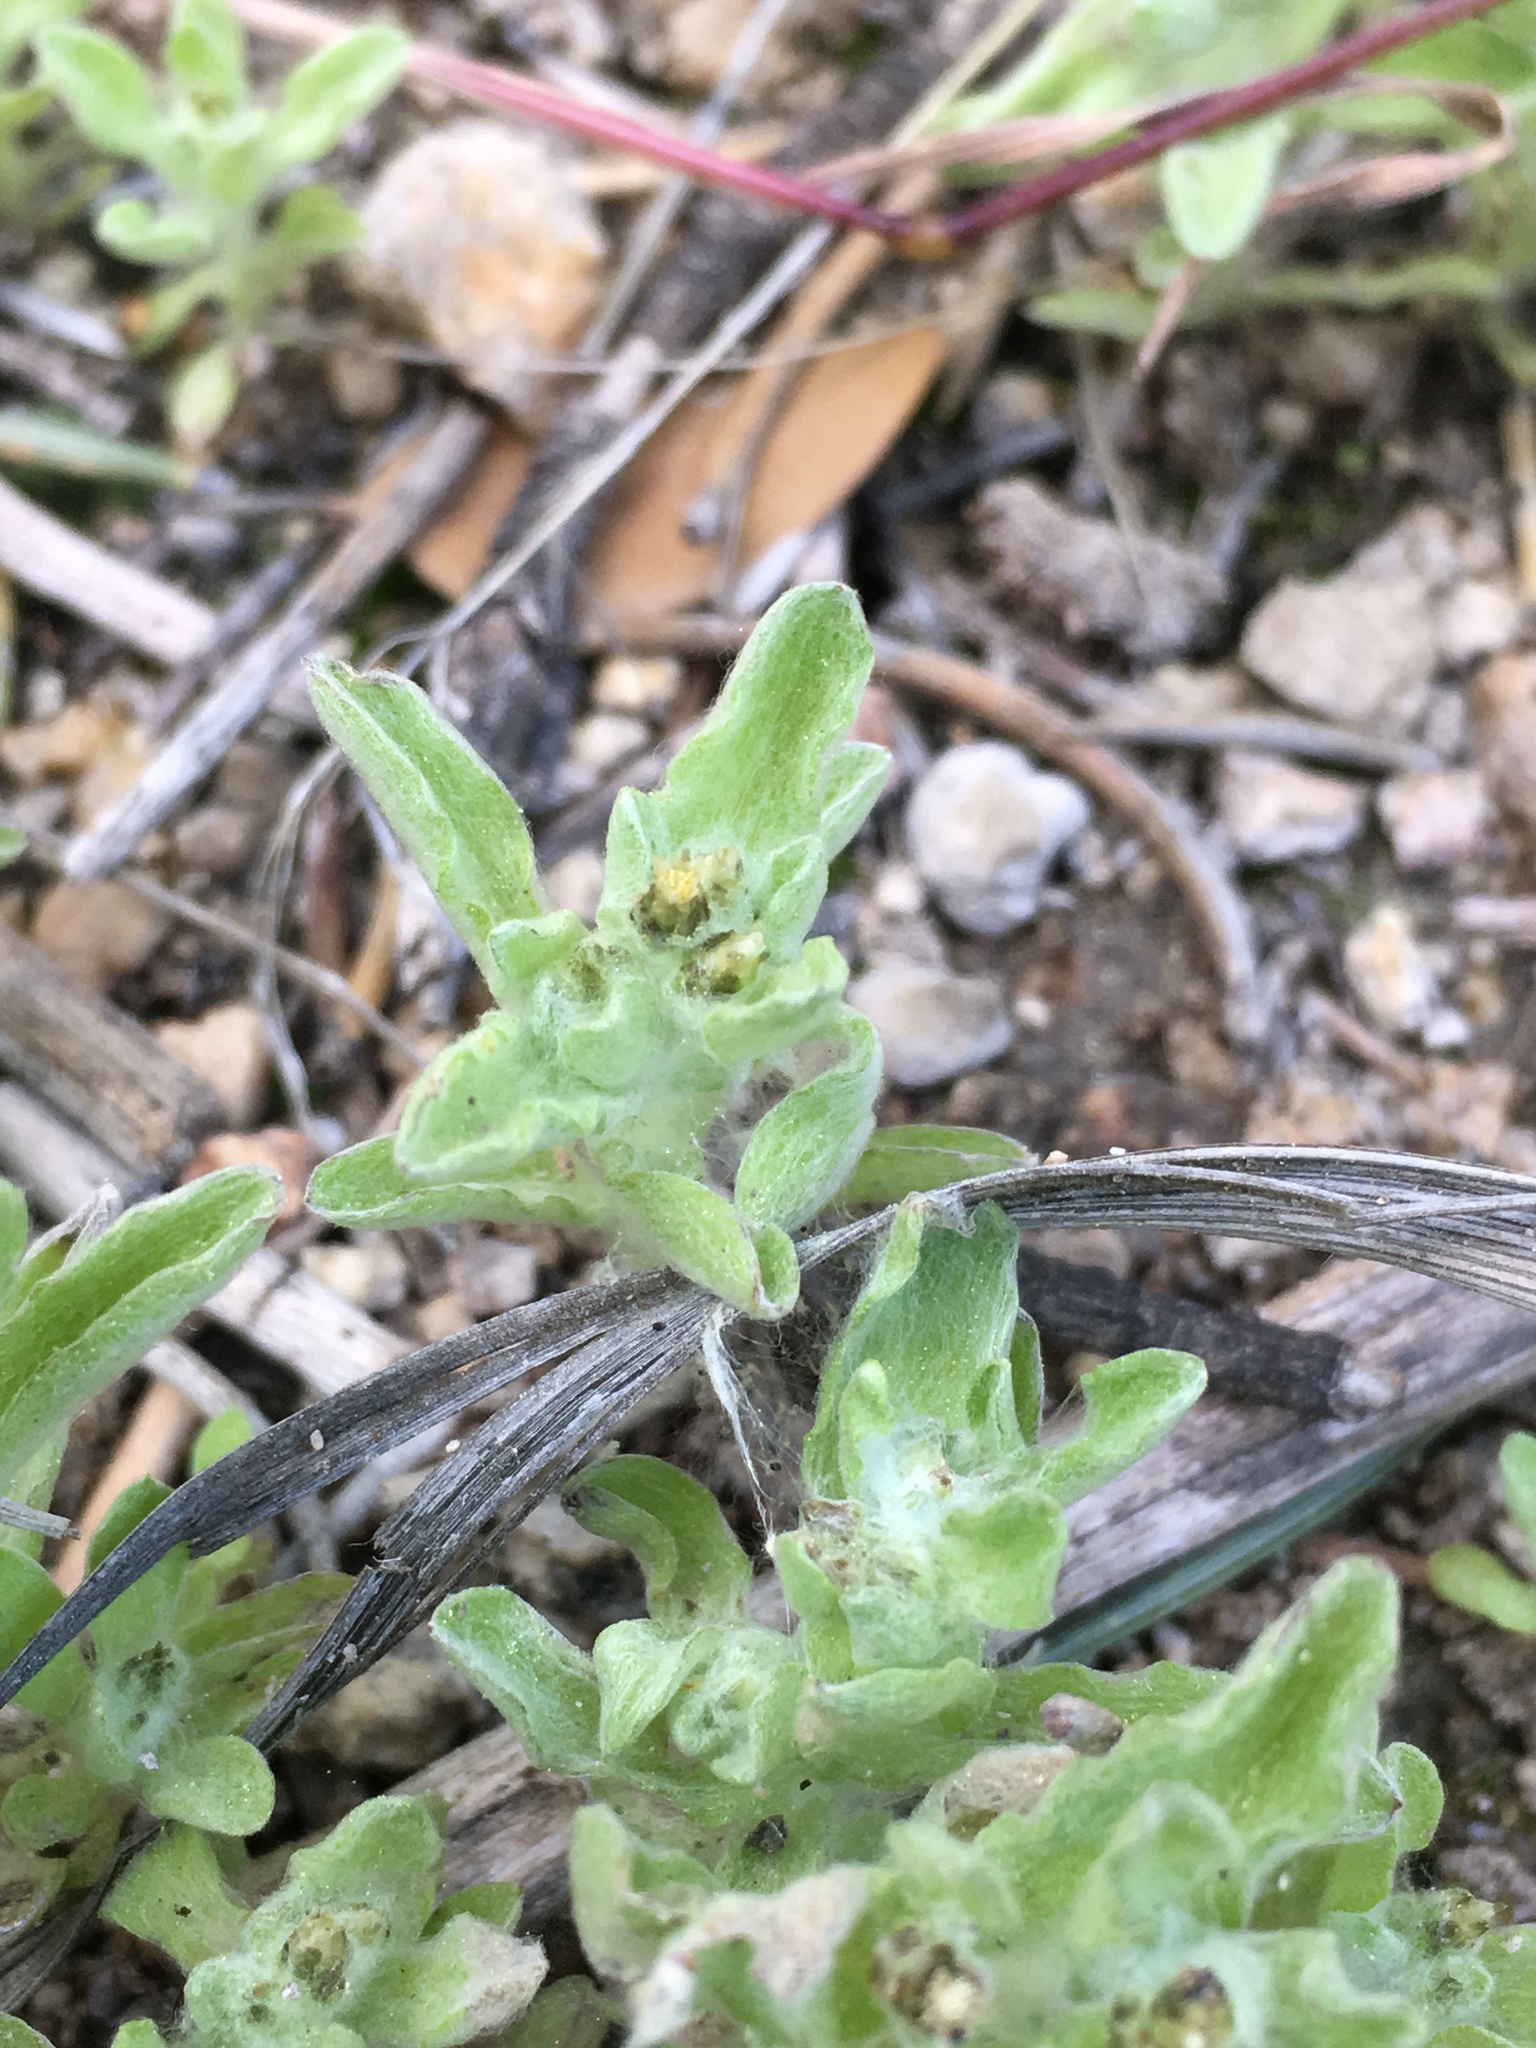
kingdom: Plantae
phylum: Tracheophyta
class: Magnoliopsida
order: Asterales
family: Asteraceae
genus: Gnaphalium
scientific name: Gnaphalium palustre
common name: Western marsh cudweed
